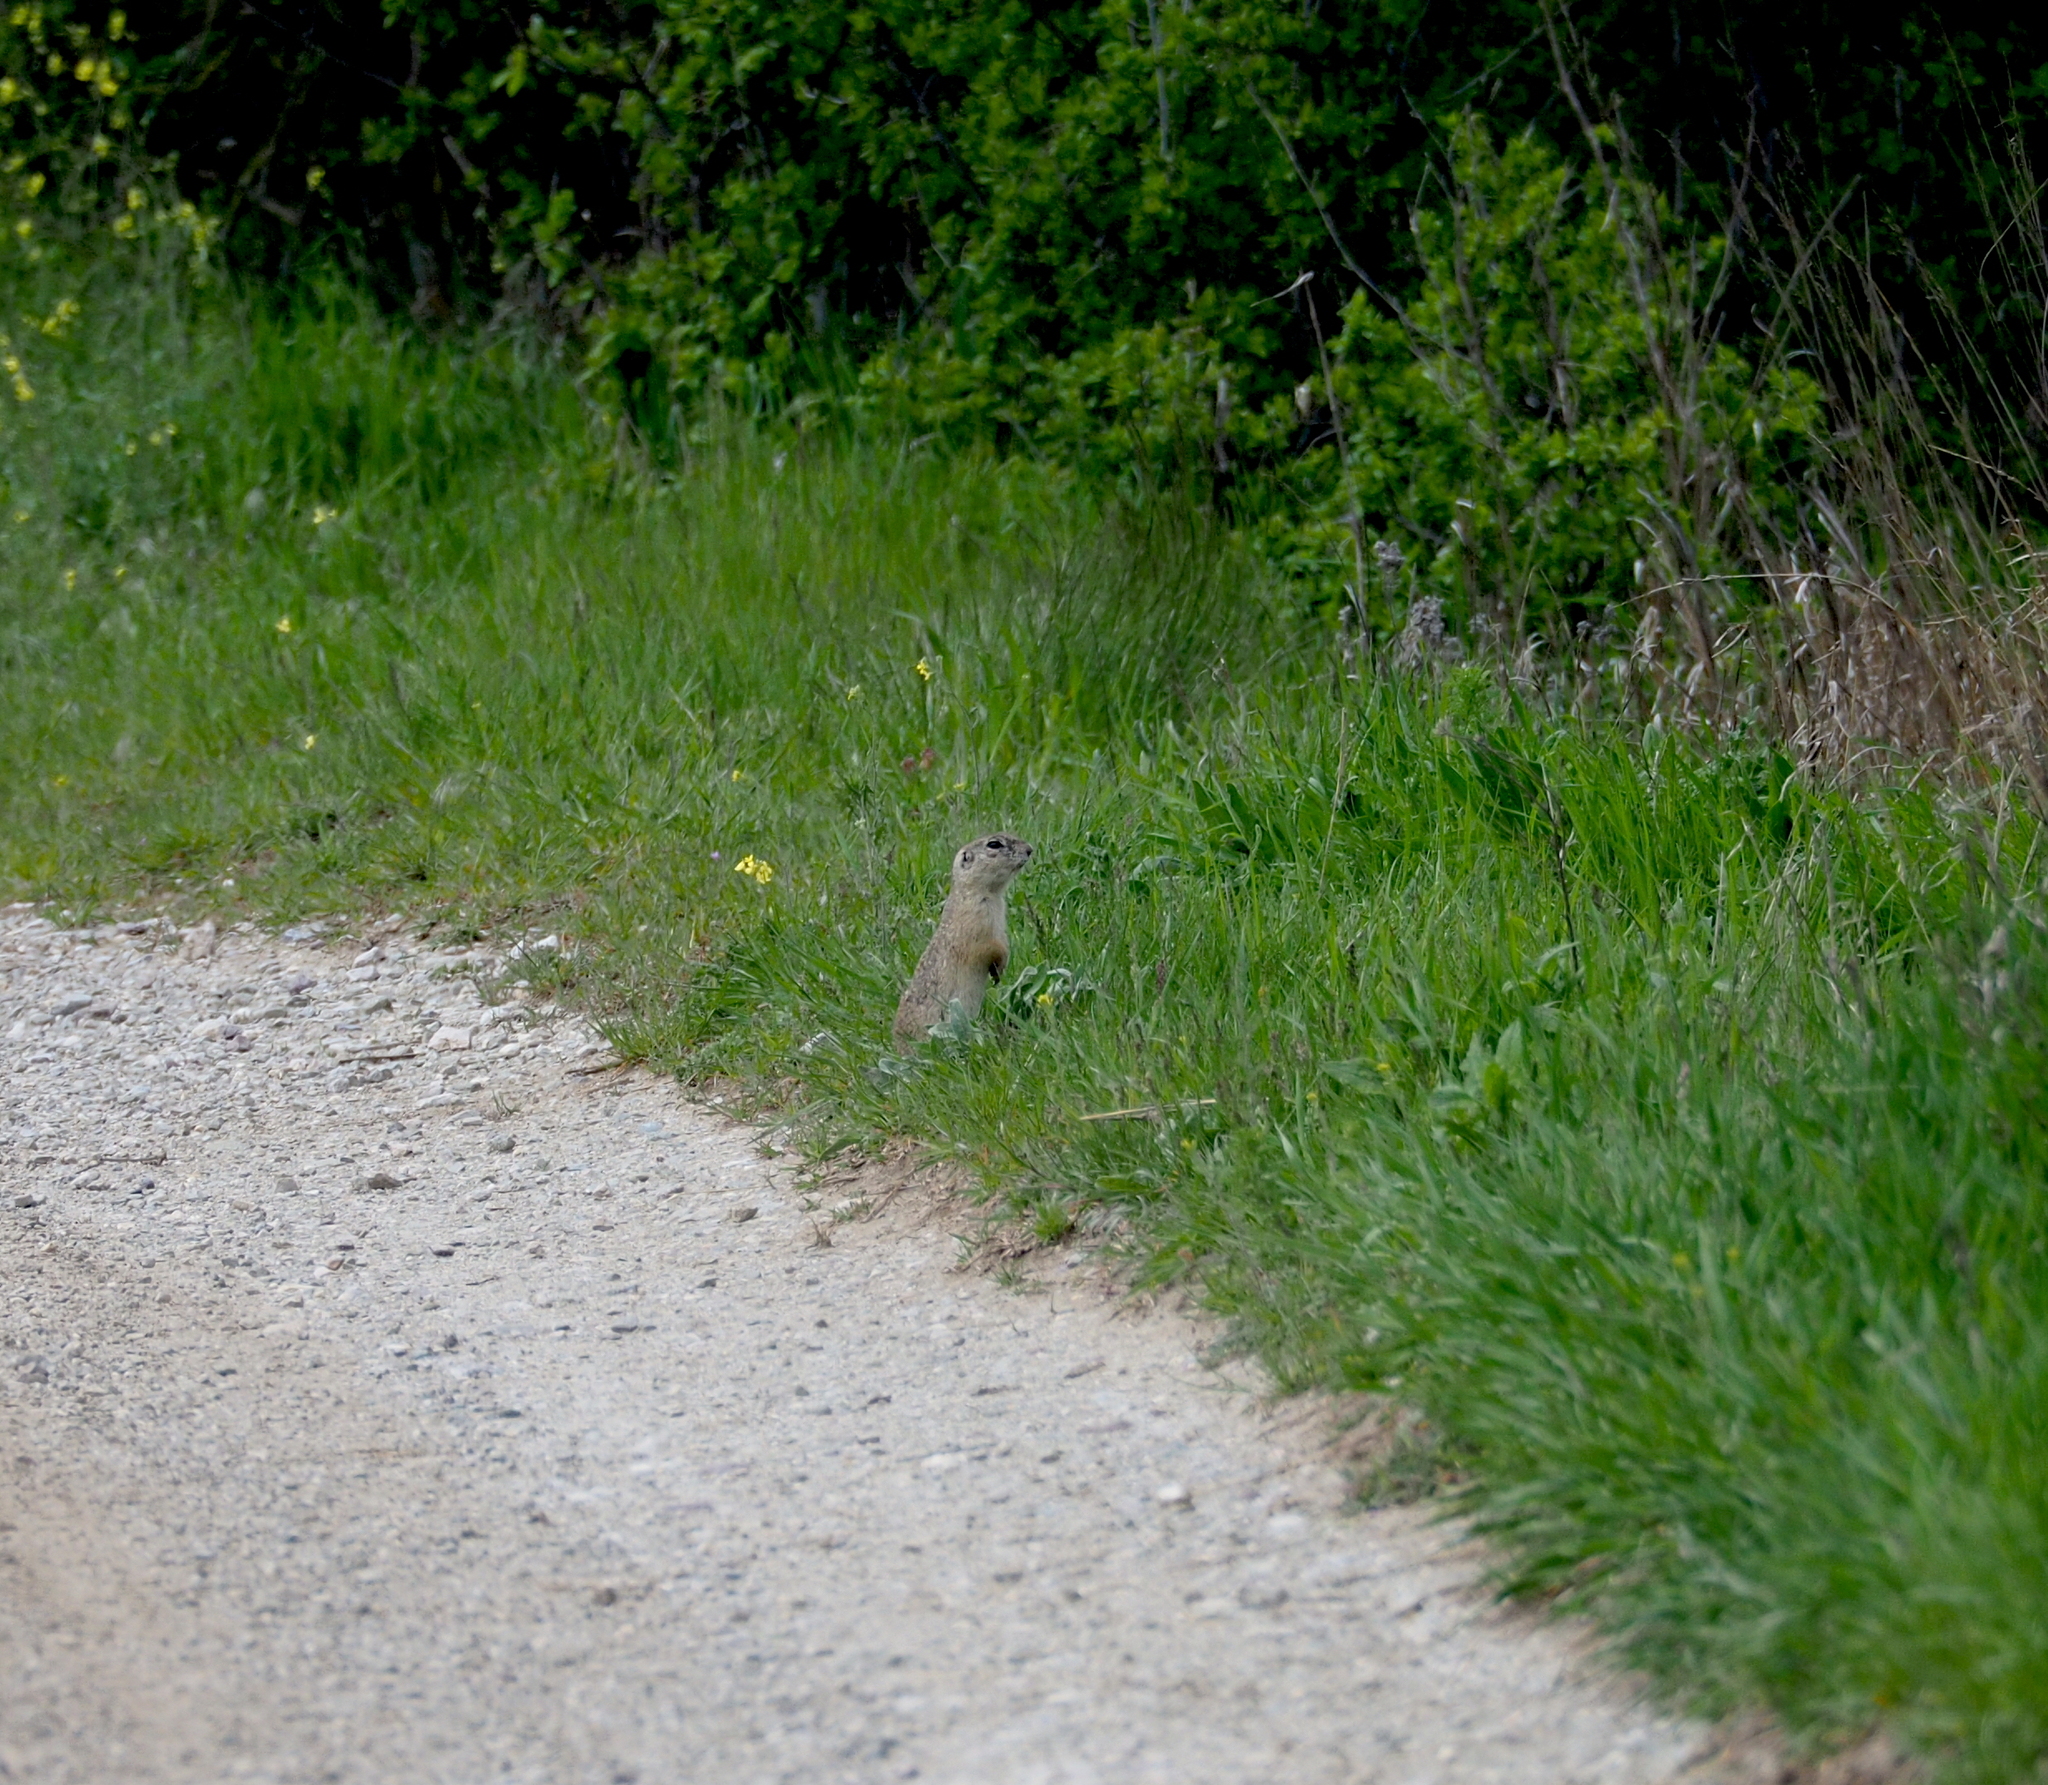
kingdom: Animalia
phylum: Chordata
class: Mammalia
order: Rodentia
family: Sciuridae
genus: Spermophilus
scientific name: Spermophilus citellus
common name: European ground squirrel
